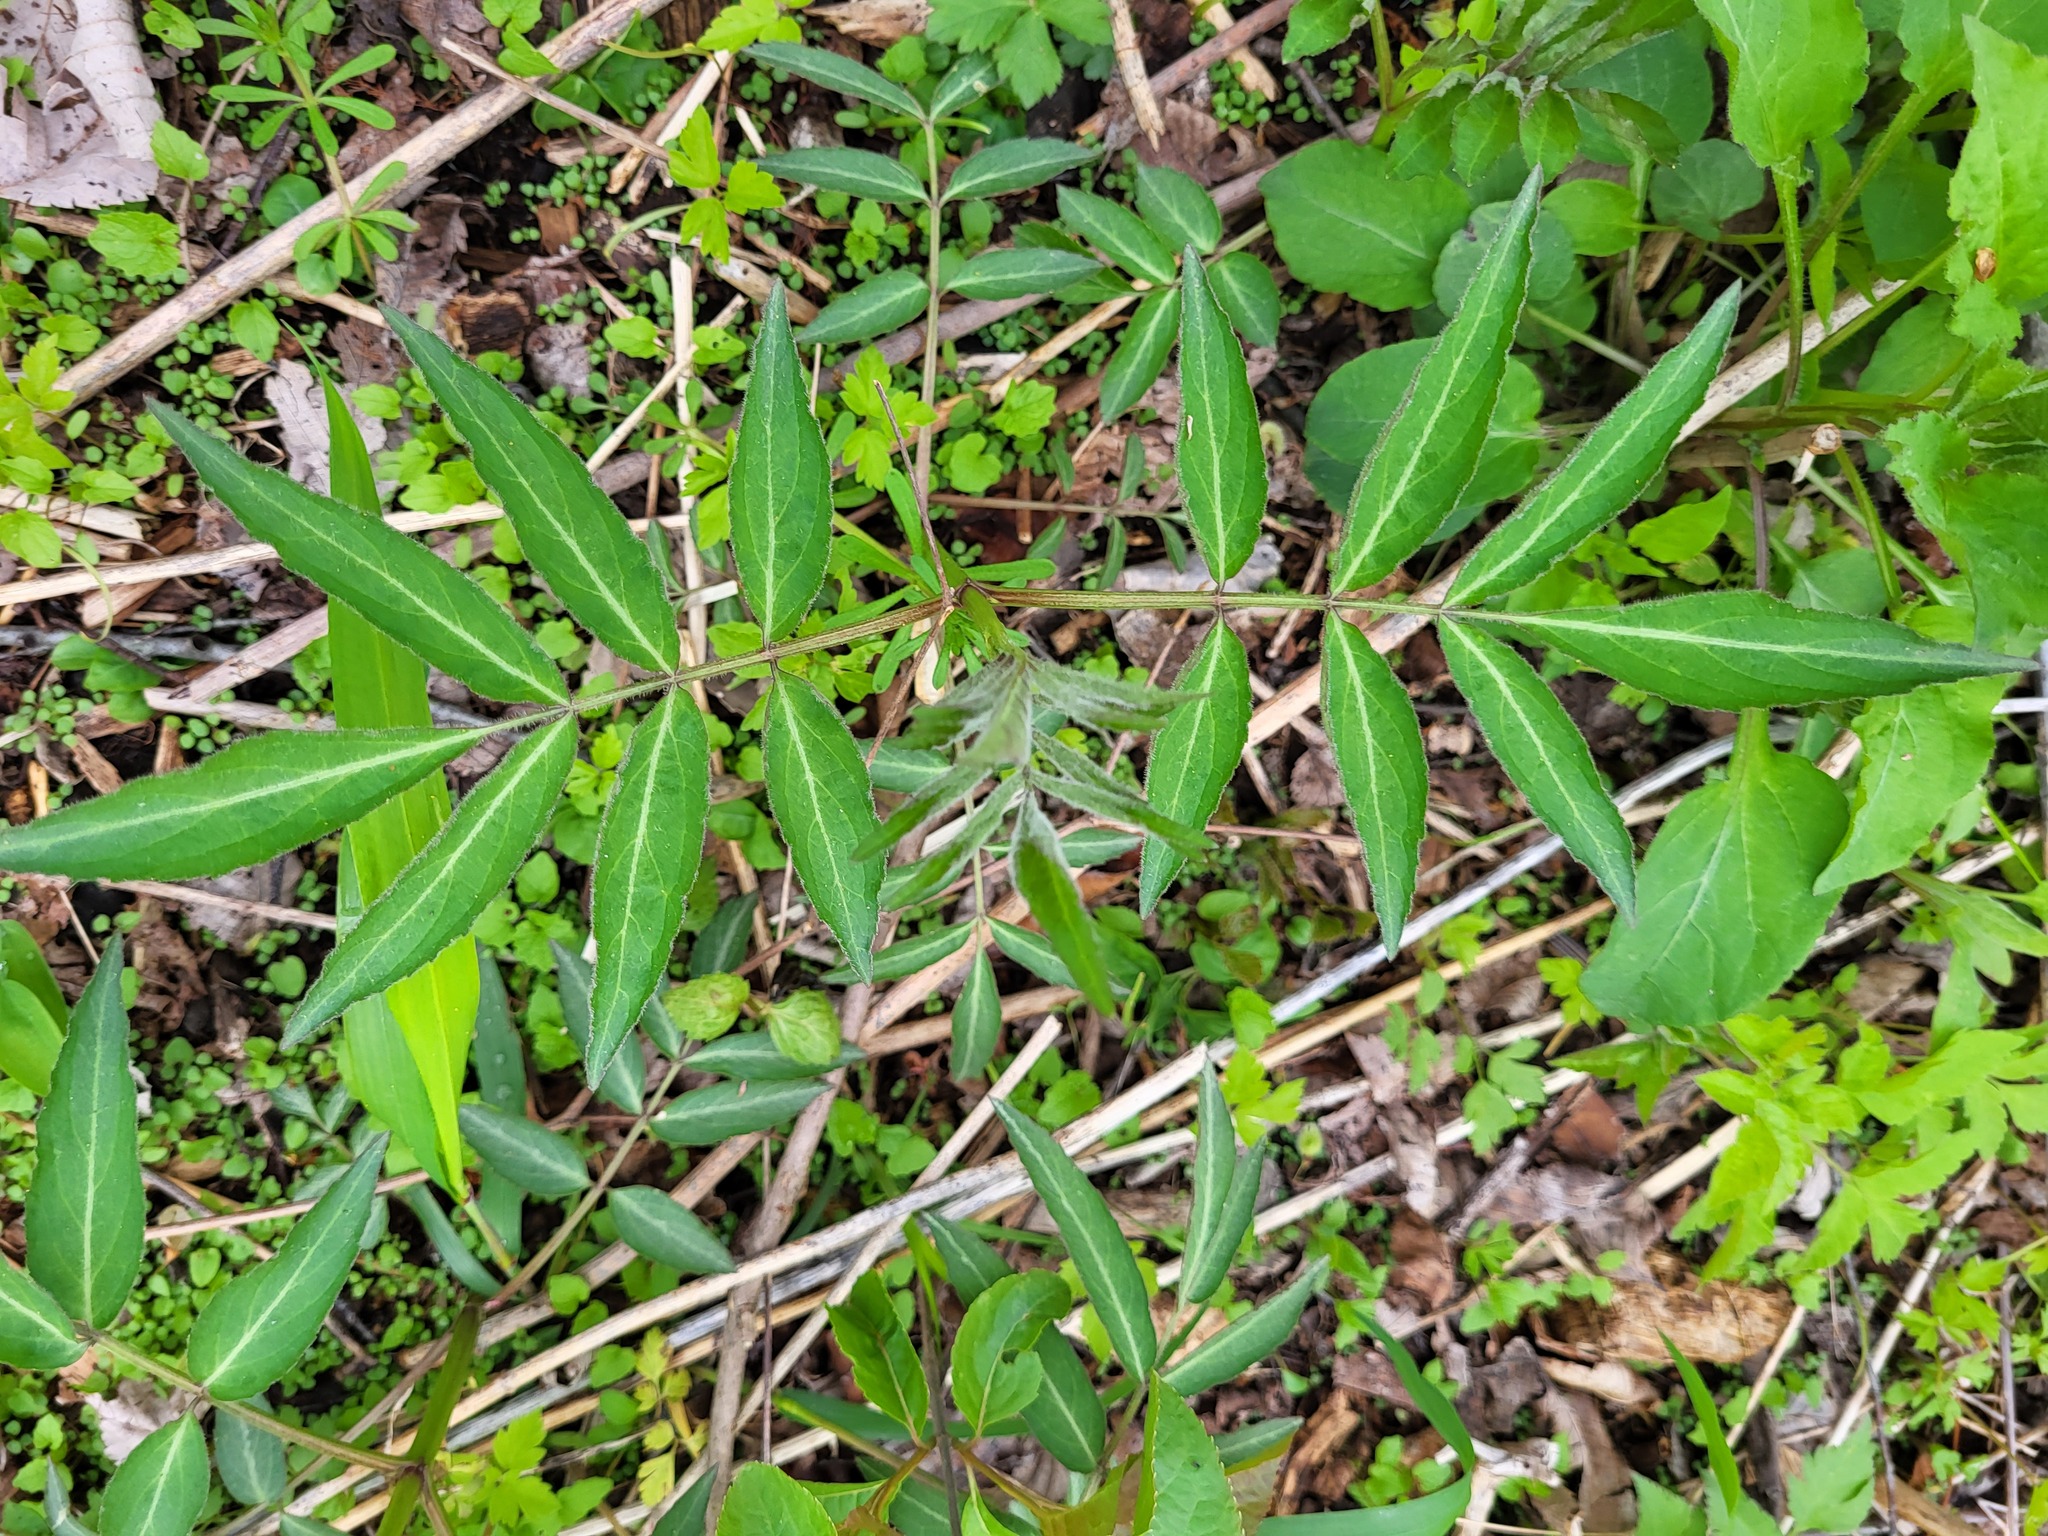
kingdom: Plantae
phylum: Tracheophyta
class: Magnoliopsida
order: Dipsacales
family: Viburnaceae
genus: Sambucus
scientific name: Sambucus canadensis
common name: American elder
